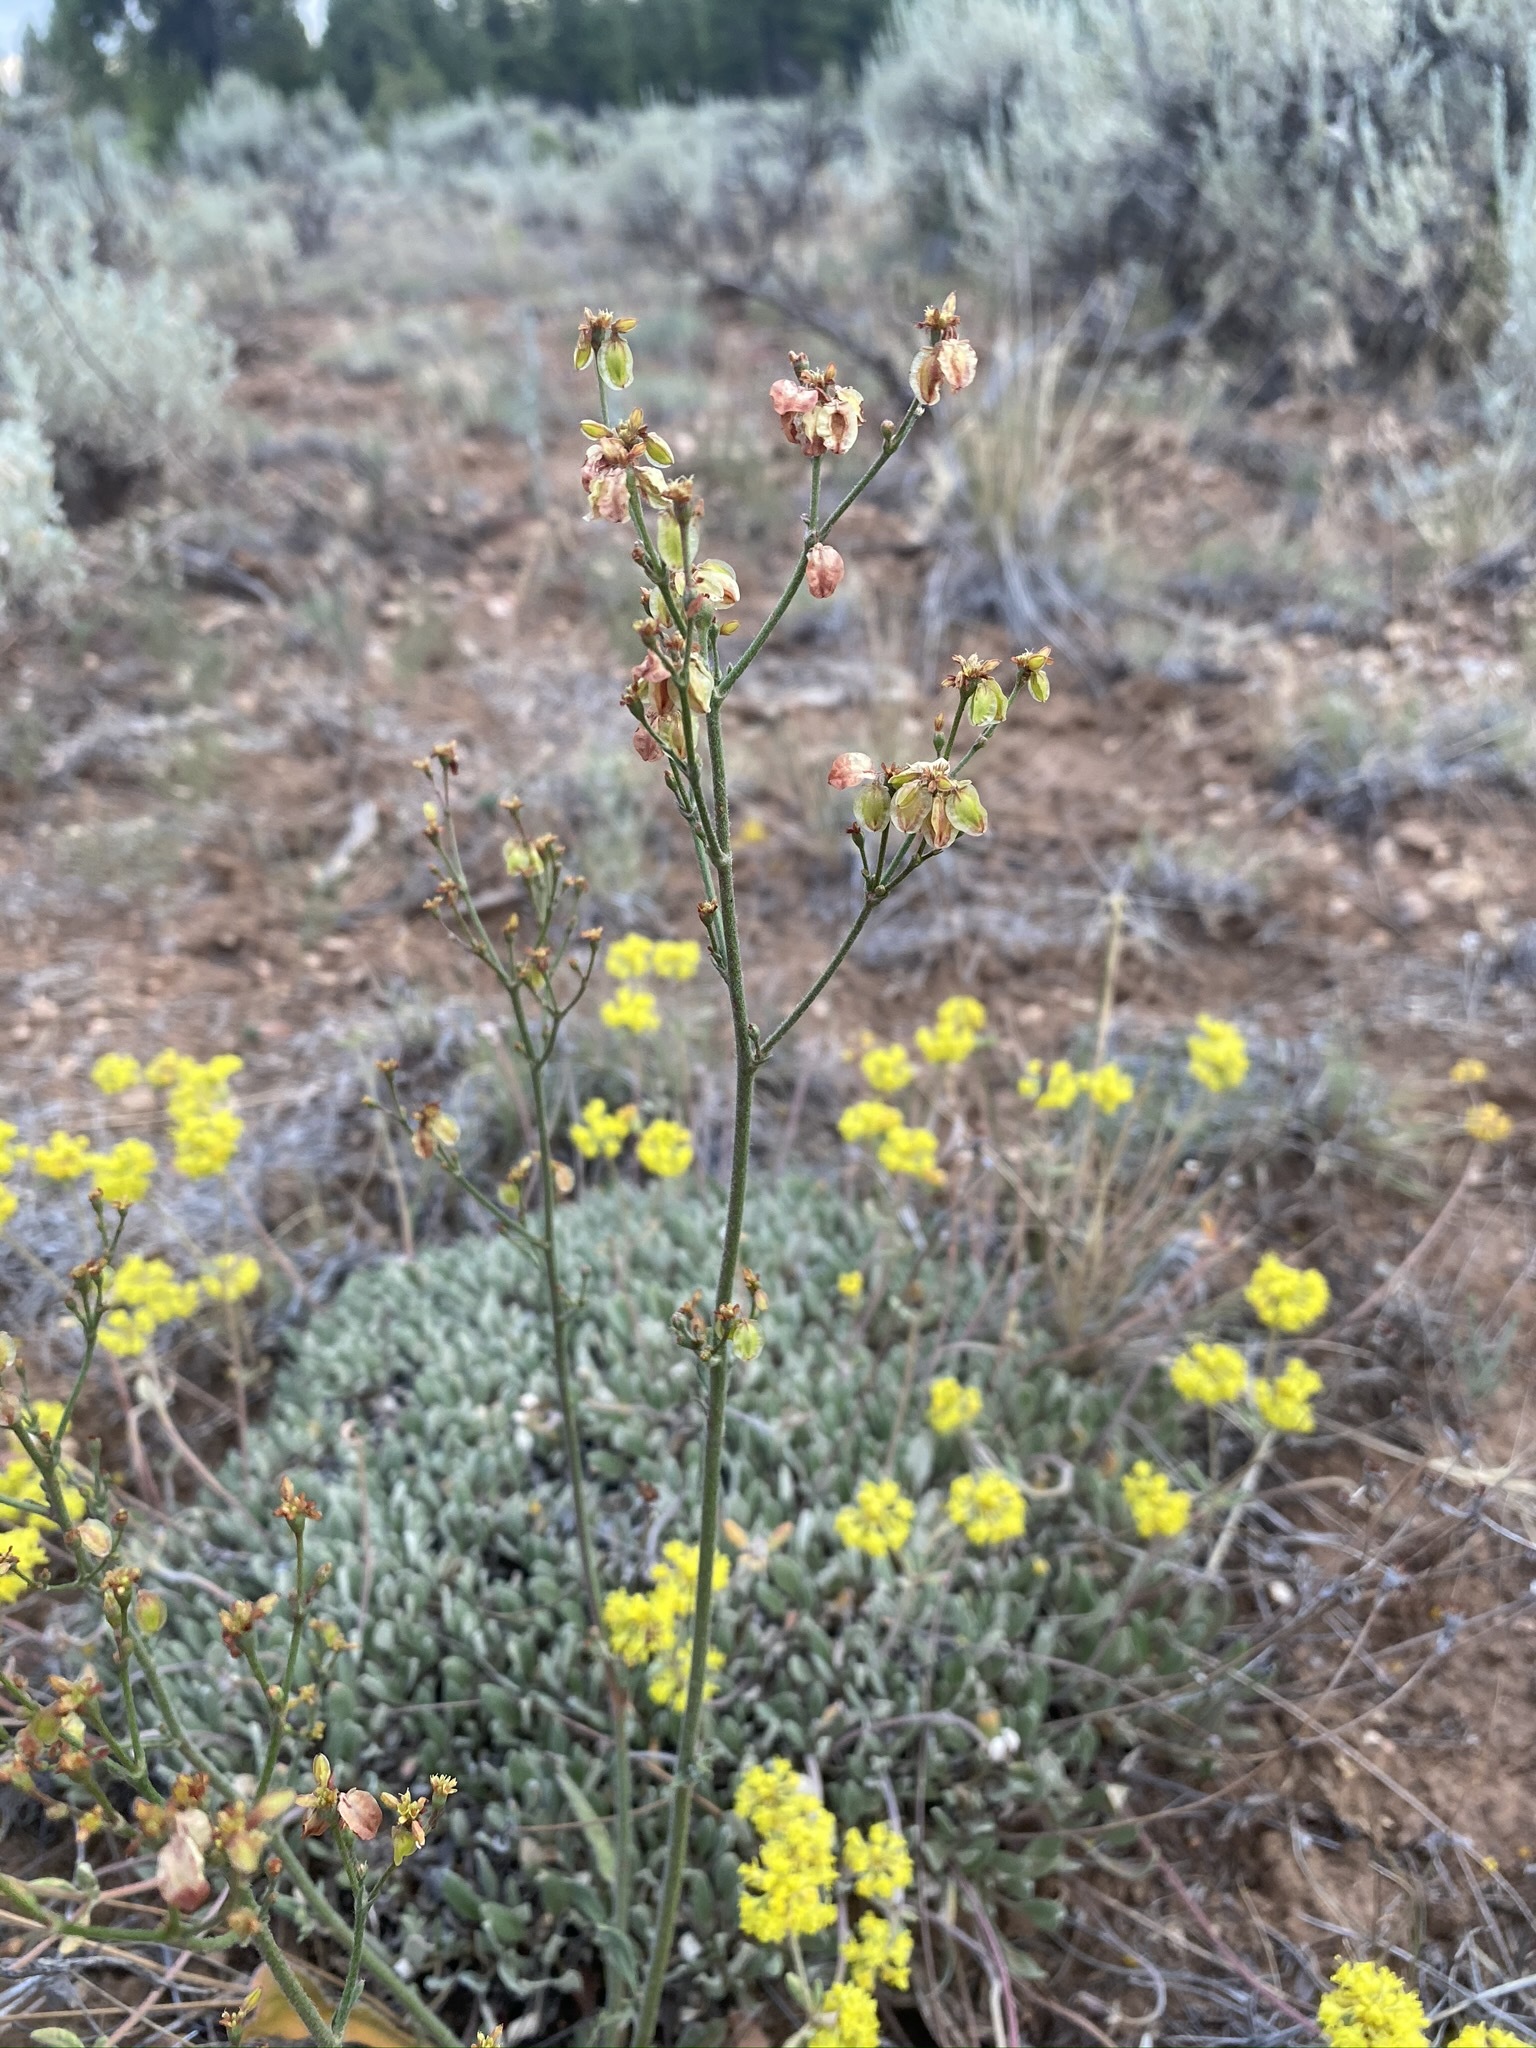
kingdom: Plantae
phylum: Tracheophyta
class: Magnoliopsida
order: Caryophyllales
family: Polygonaceae
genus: Eriogonum
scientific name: Eriogonum alatum
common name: Winged eriogonum
